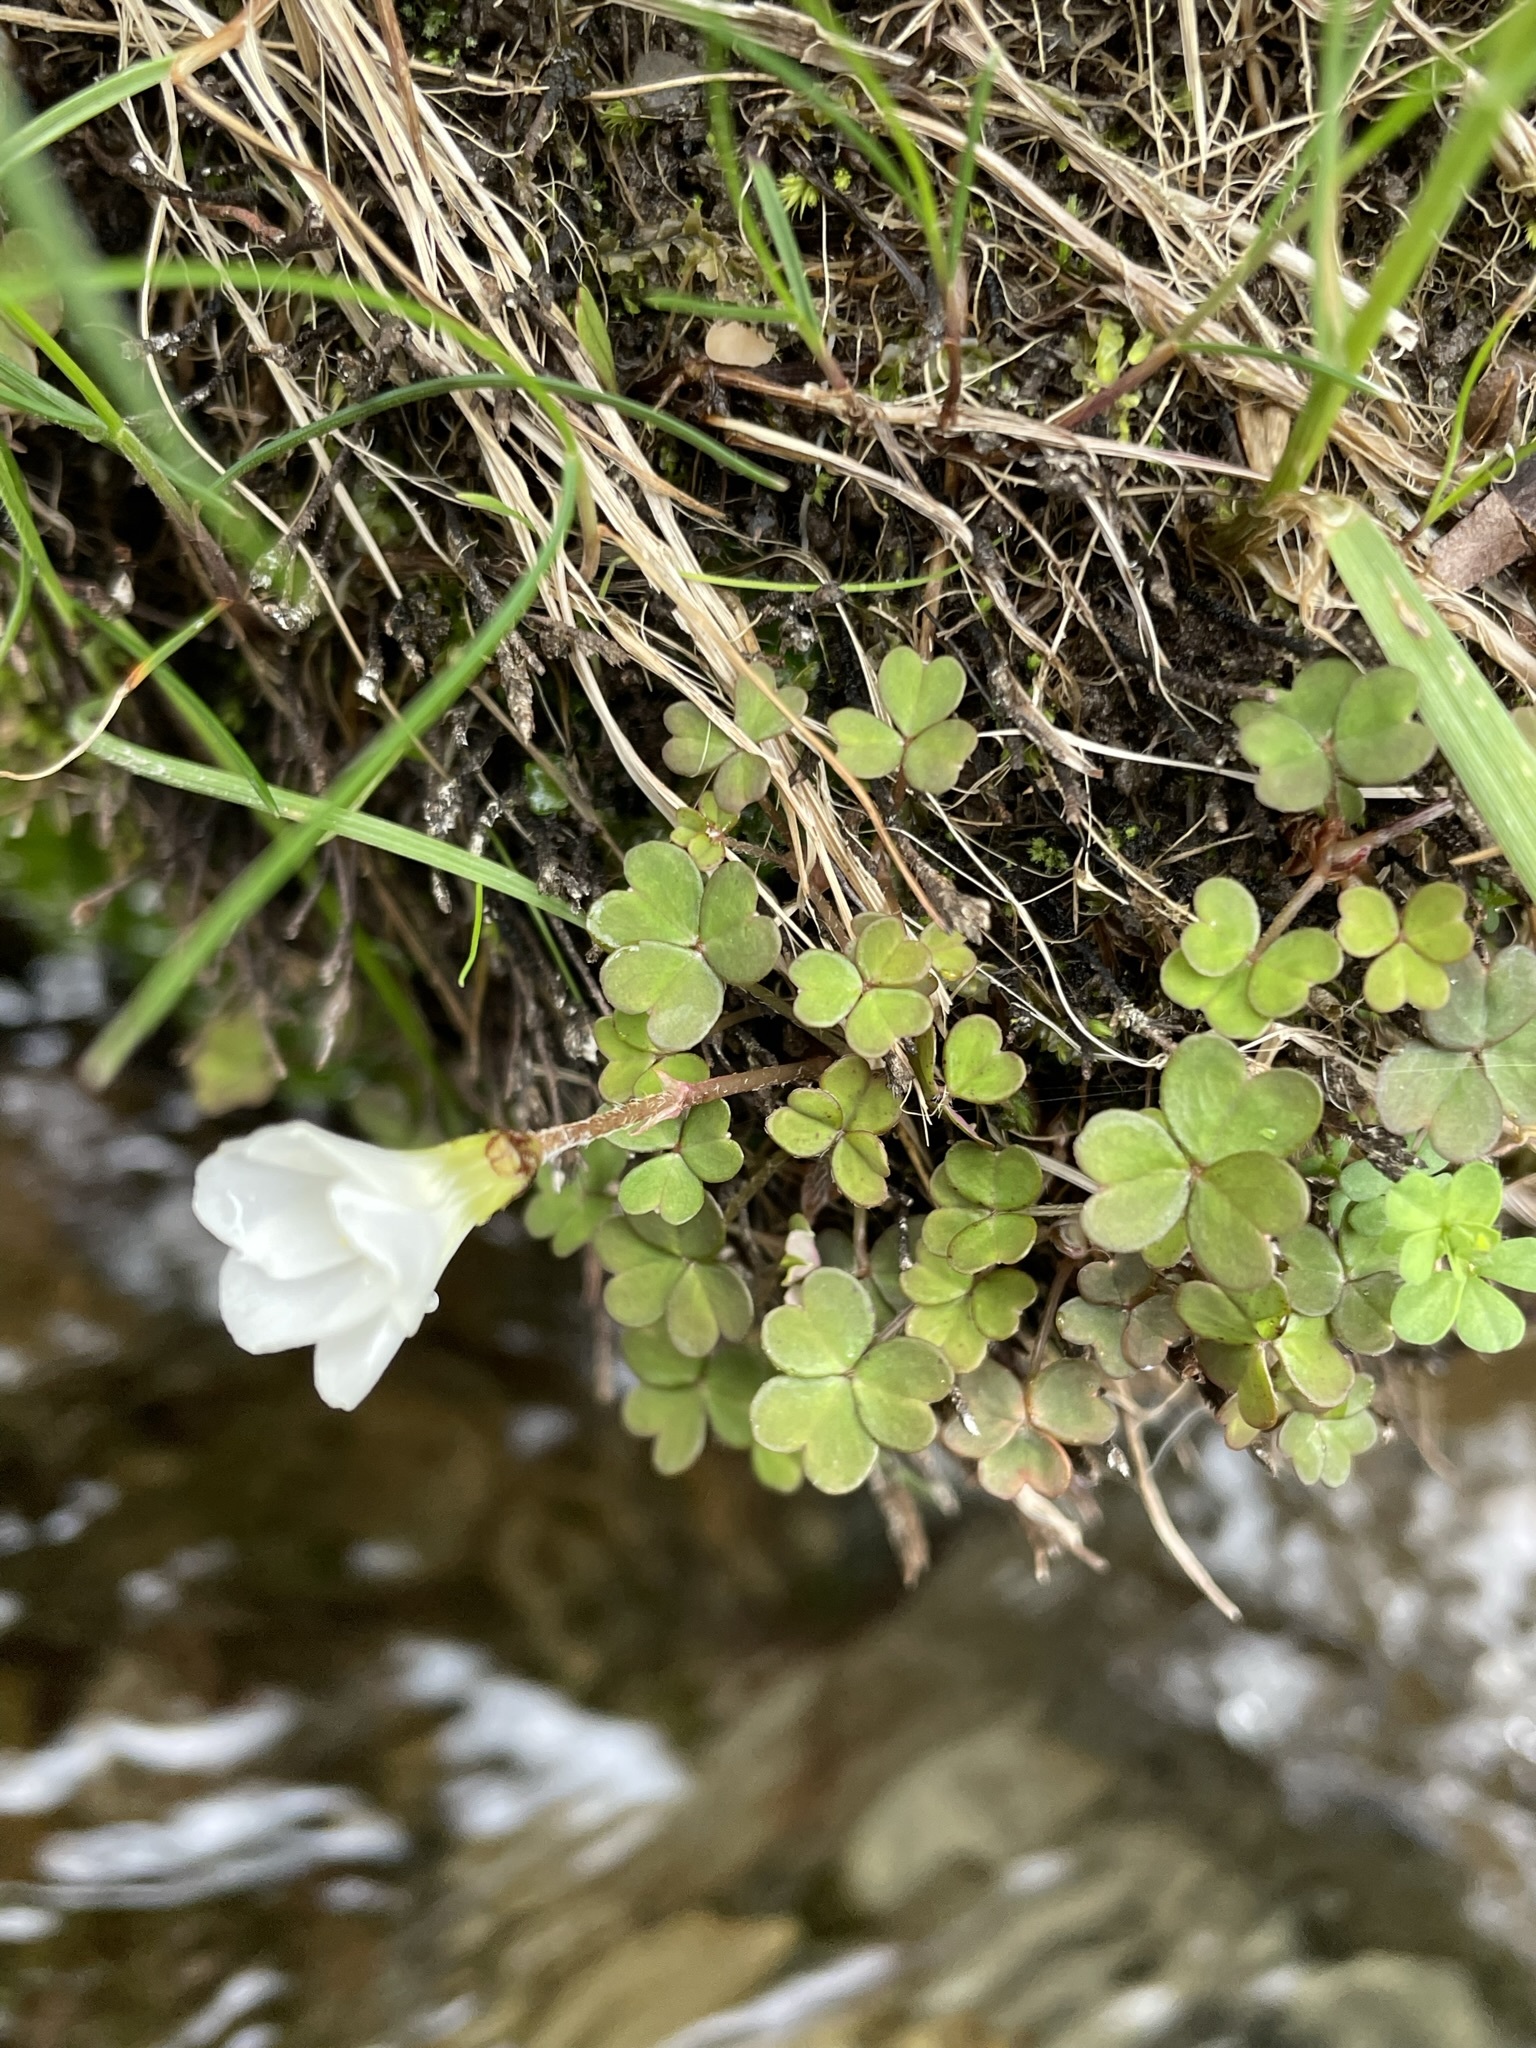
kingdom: Plantae
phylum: Tracheophyta
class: Magnoliopsida
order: Oxalidales
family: Oxalidaceae
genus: Oxalis
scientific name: Oxalis magellanica
